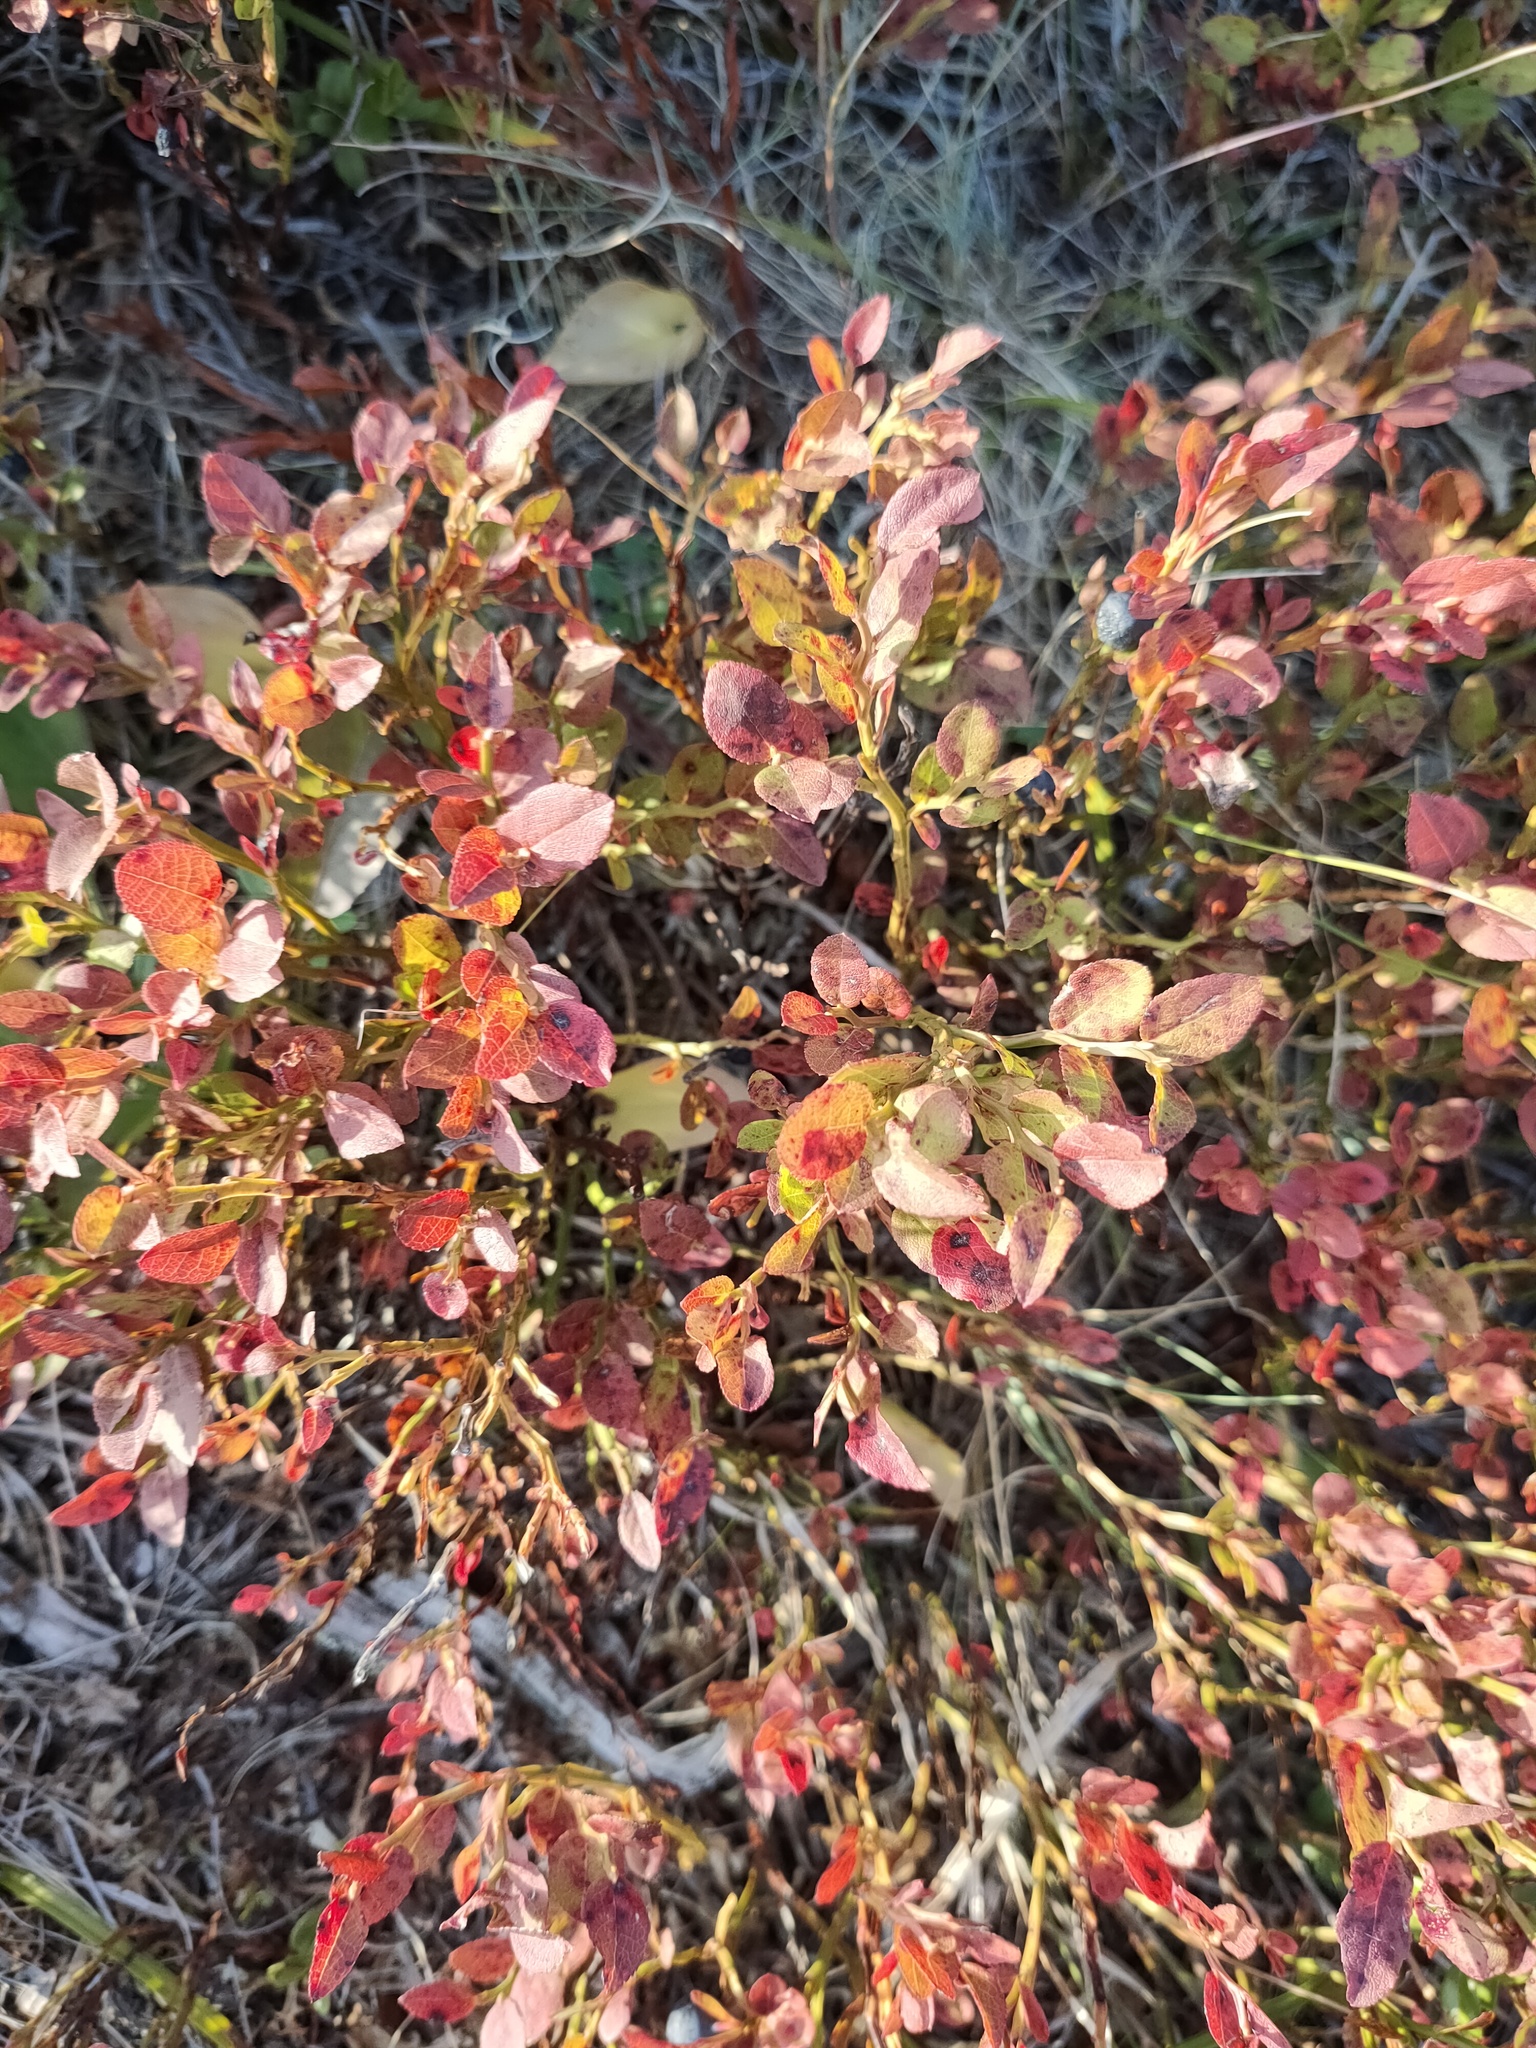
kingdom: Plantae
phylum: Tracheophyta
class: Magnoliopsida
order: Ericales
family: Ericaceae
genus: Vaccinium
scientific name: Vaccinium myrtillus
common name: Bilberry
